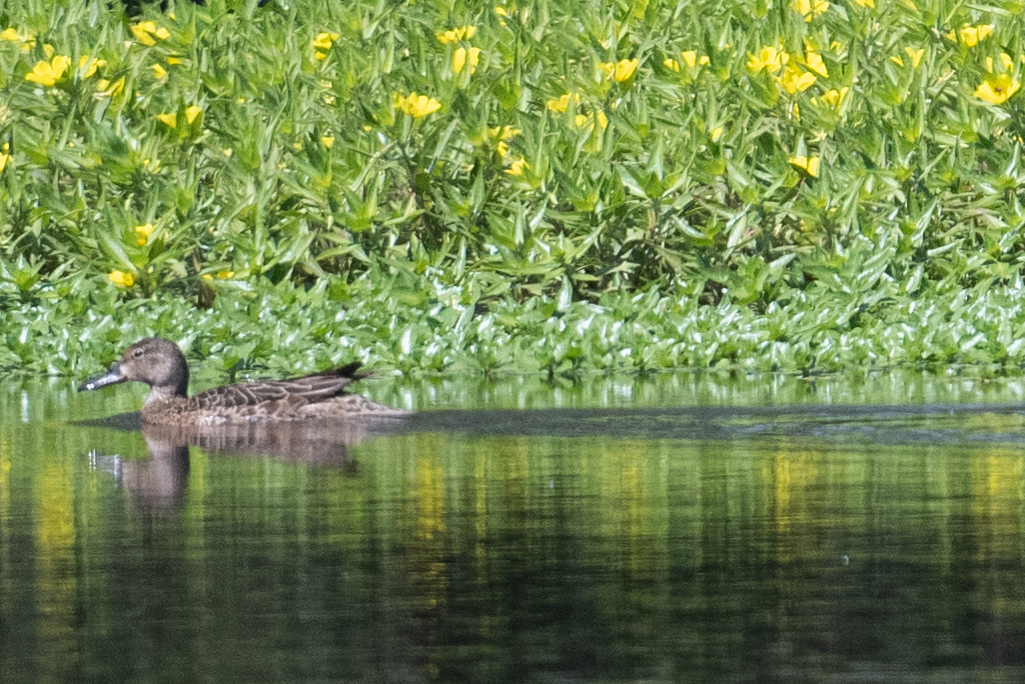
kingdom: Animalia
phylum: Chordata
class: Aves
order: Anseriformes
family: Anatidae
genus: Spatula
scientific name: Spatula cyanoptera
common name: Cinnamon teal
